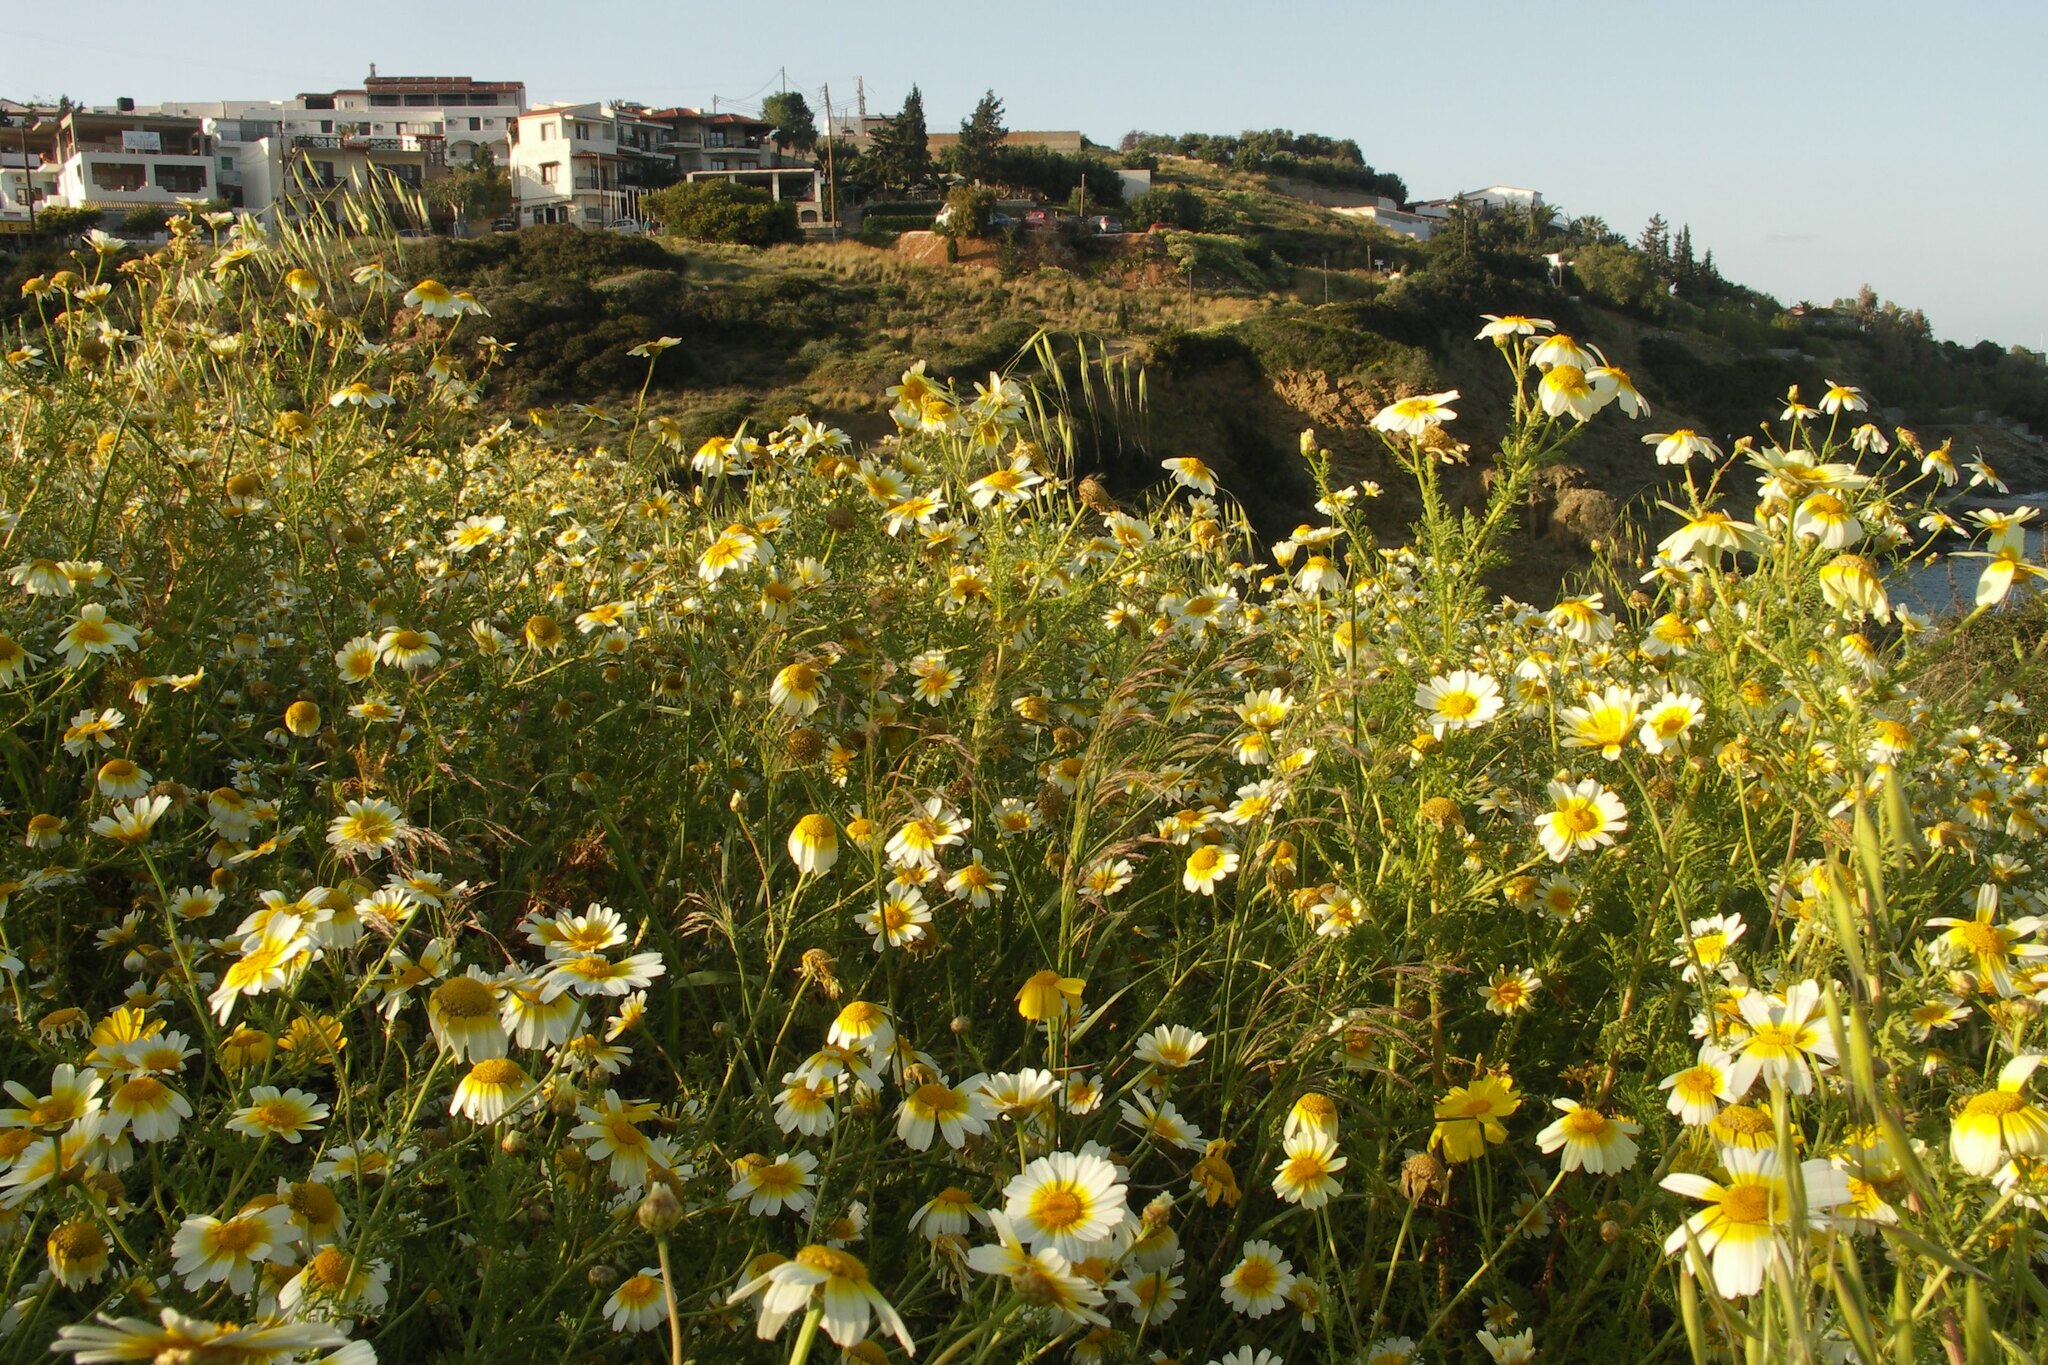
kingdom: Plantae
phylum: Tracheophyta
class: Magnoliopsida
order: Asterales
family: Asteraceae
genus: Glebionis
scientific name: Glebionis coronaria
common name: Crowndaisy
